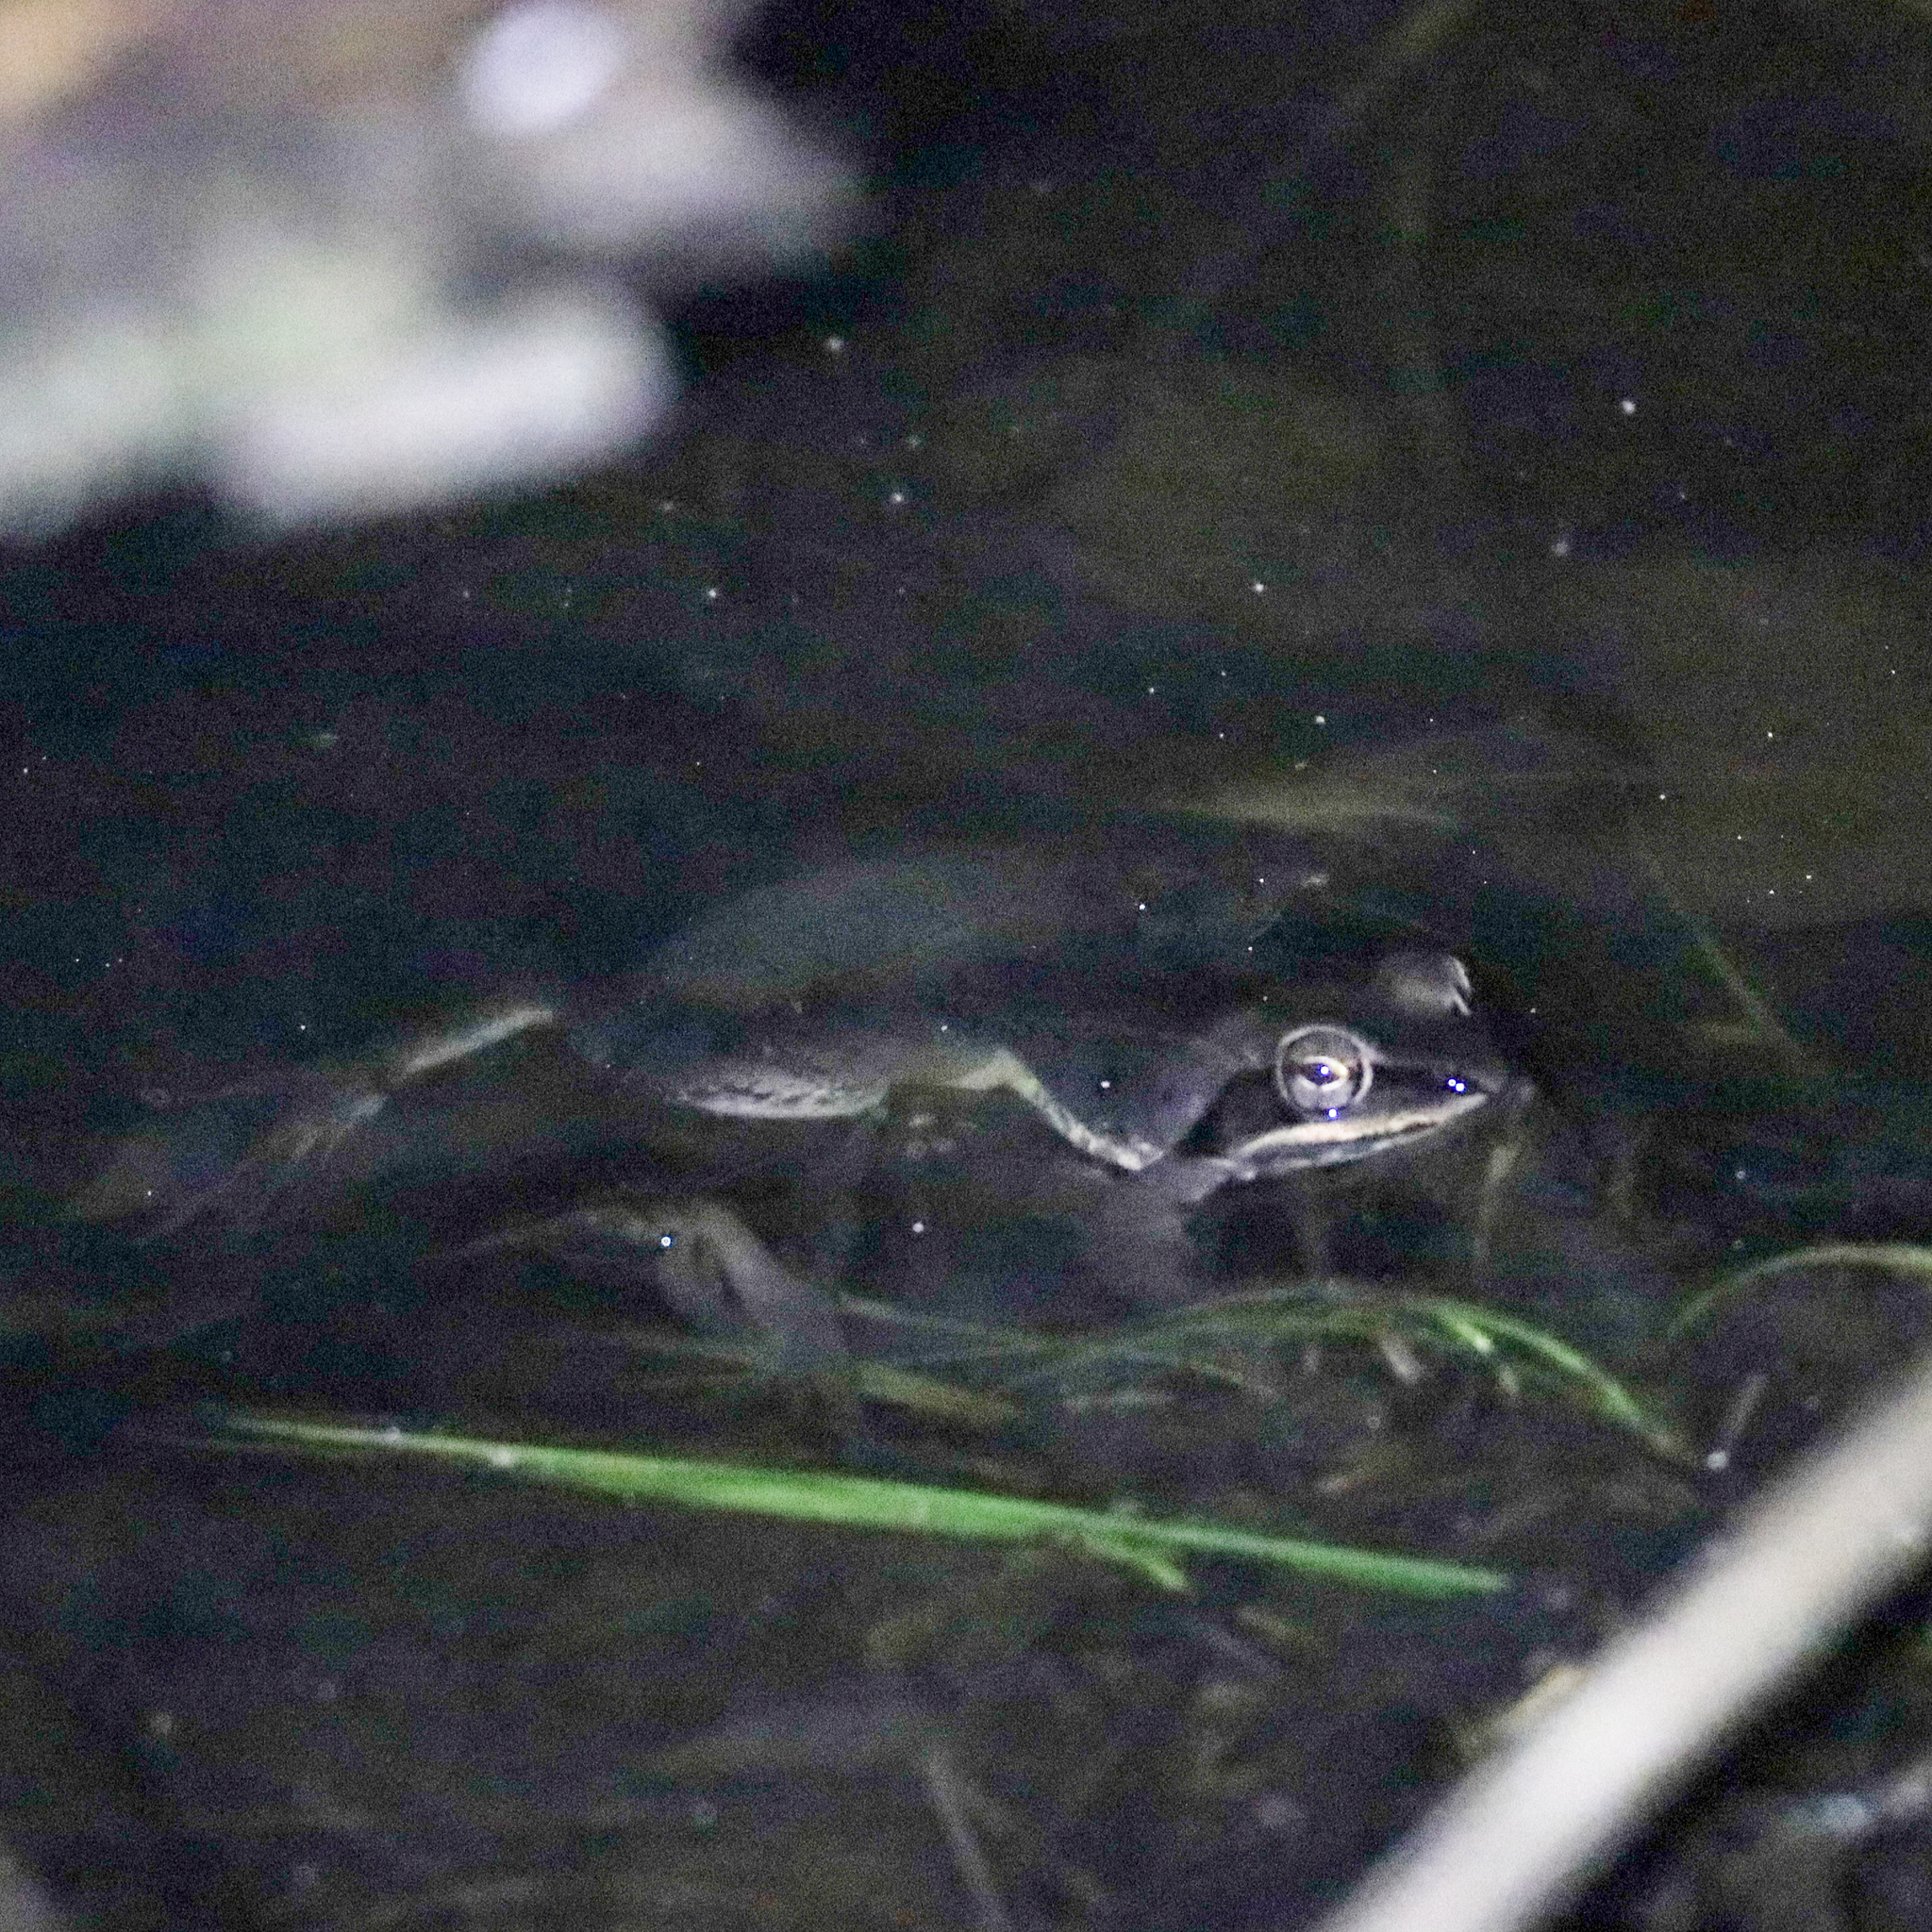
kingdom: Animalia
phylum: Chordata
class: Amphibia
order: Anura
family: Ranidae
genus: Lithobates
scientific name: Lithobates sylvaticus
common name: Wood frog
